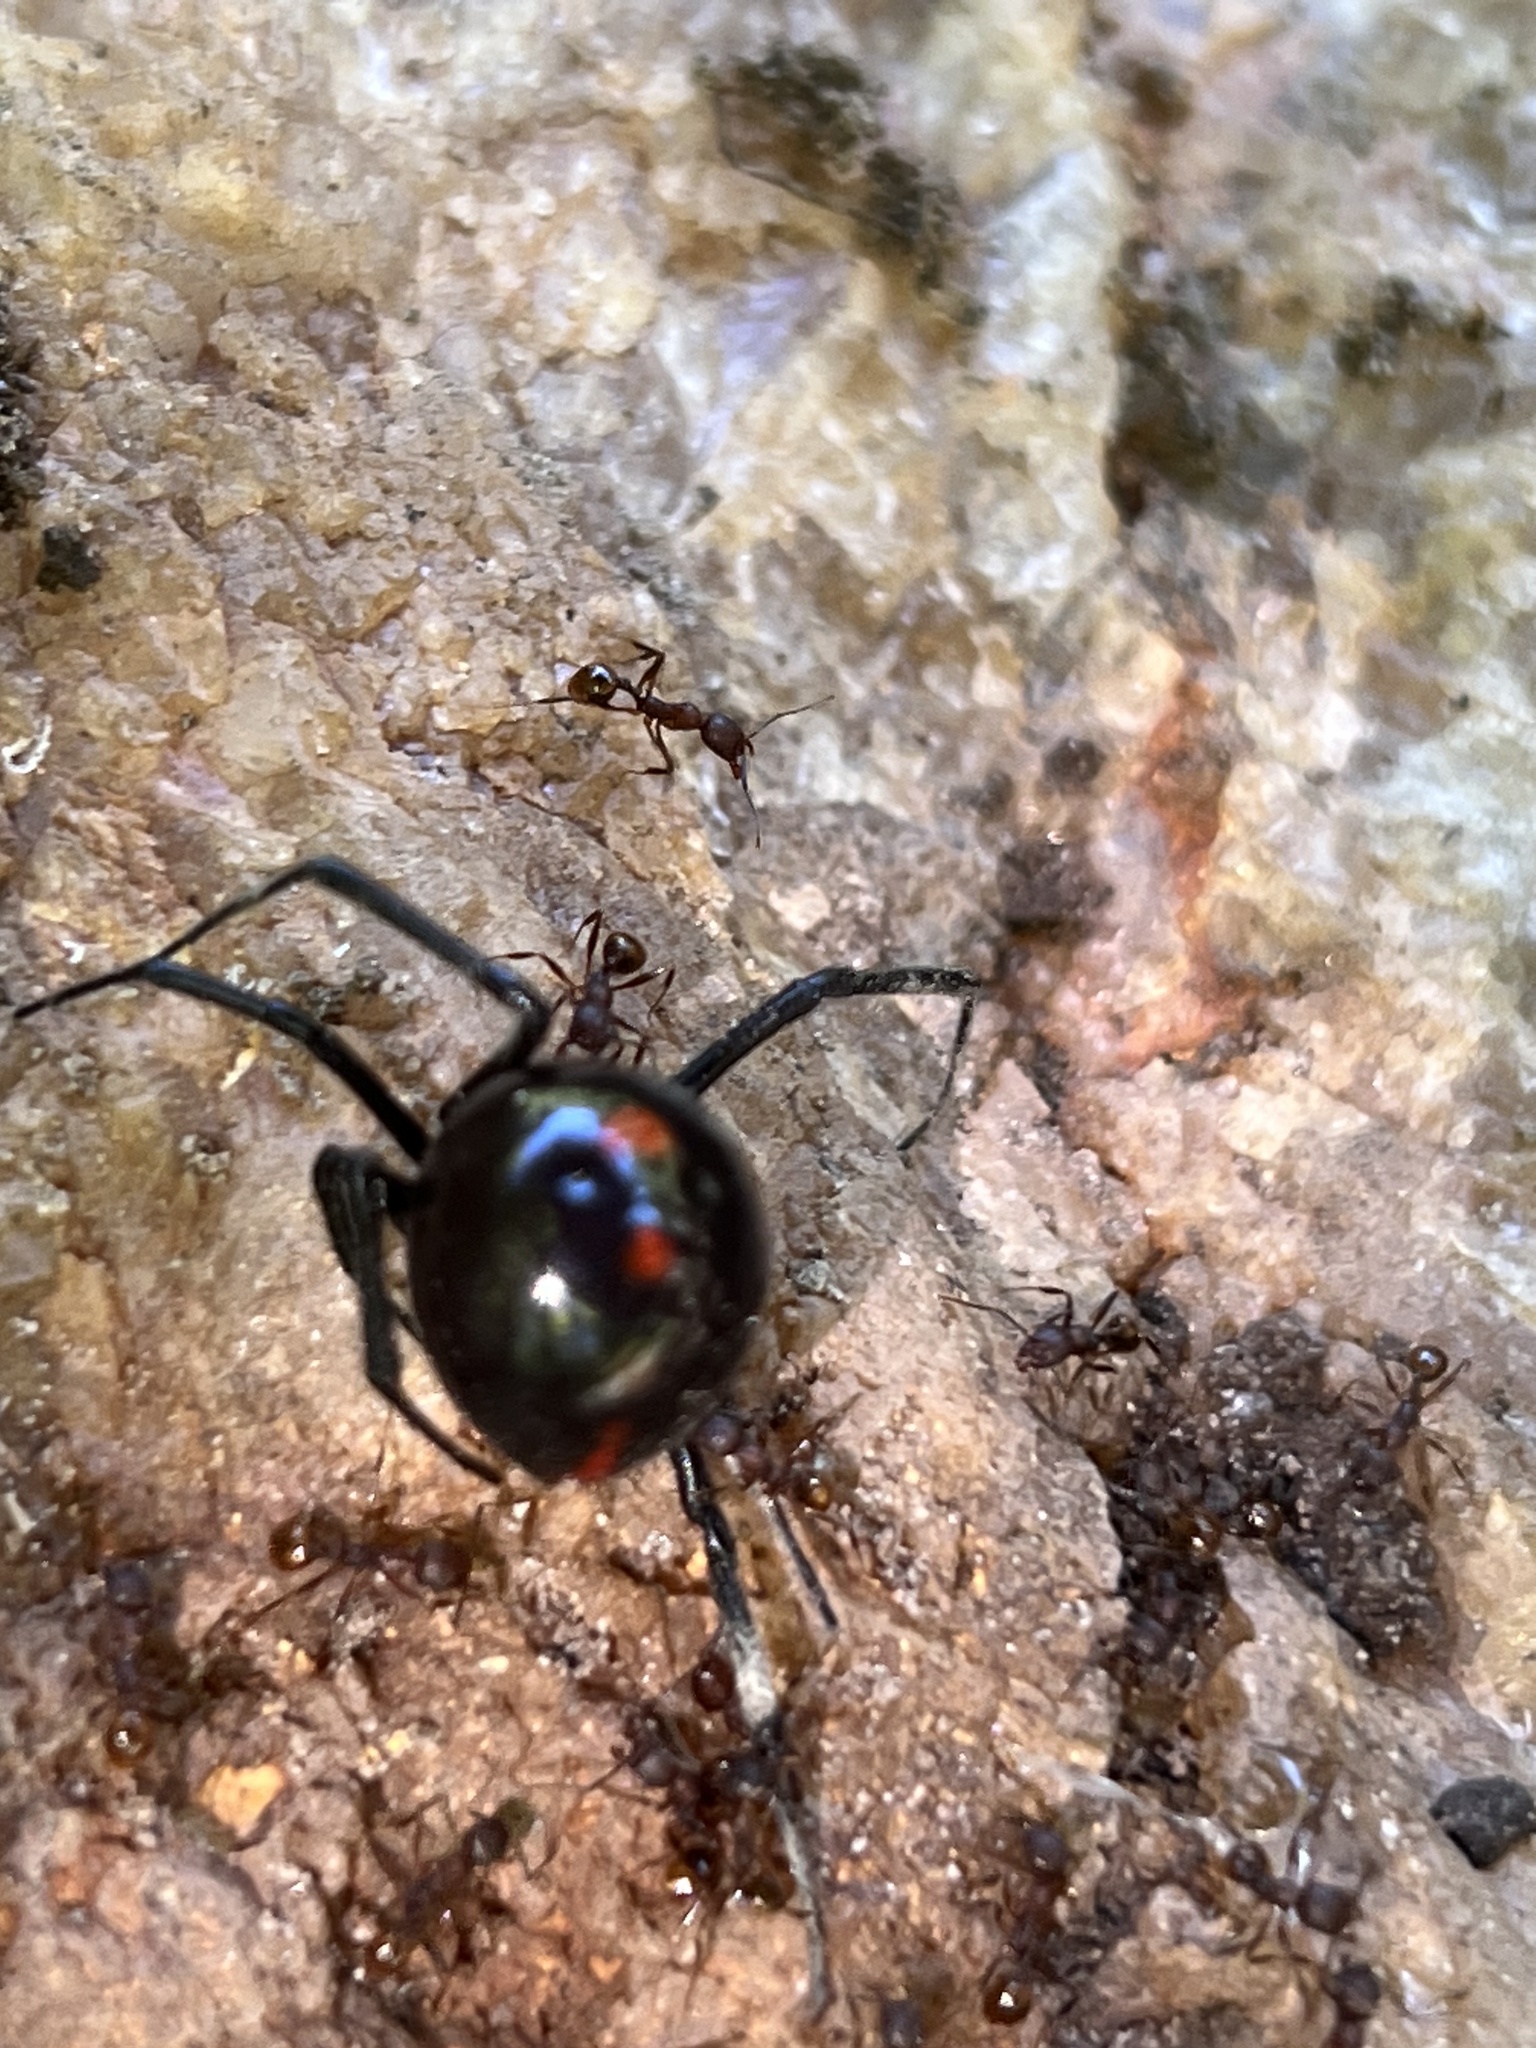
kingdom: Animalia
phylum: Arthropoda
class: Arachnida
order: Araneae
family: Theridiidae
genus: Latrodectus
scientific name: Latrodectus variolus
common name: Northern black widow
